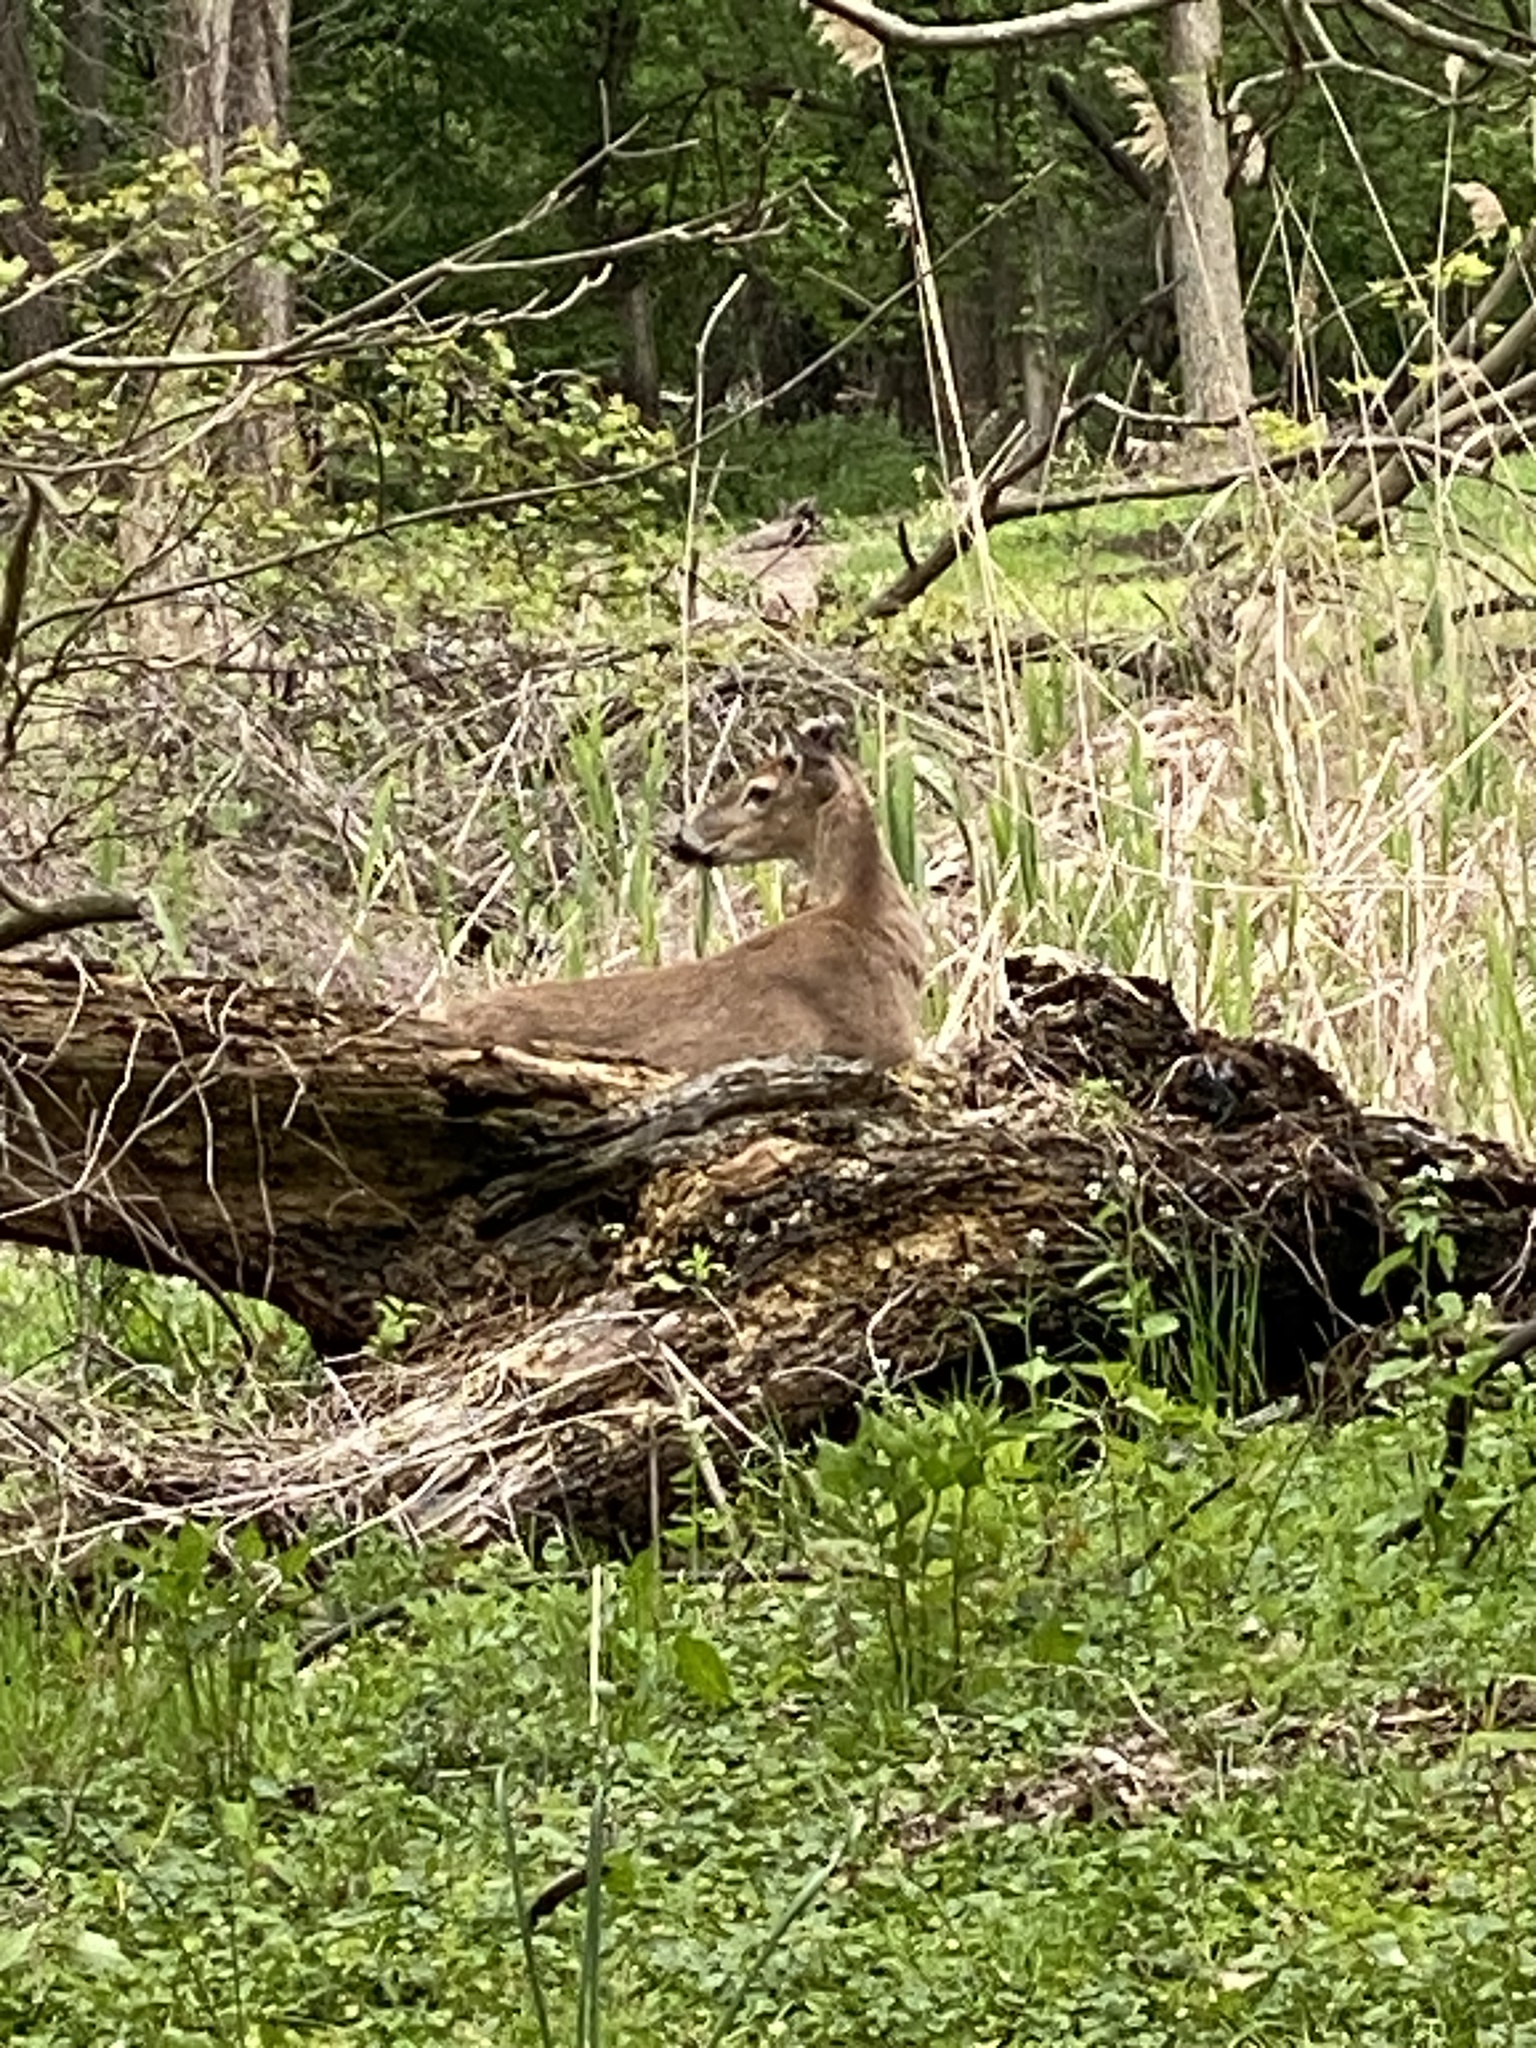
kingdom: Animalia
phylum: Chordata
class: Mammalia
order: Artiodactyla
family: Cervidae
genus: Odocoileus
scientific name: Odocoileus virginianus
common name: White-tailed deer
